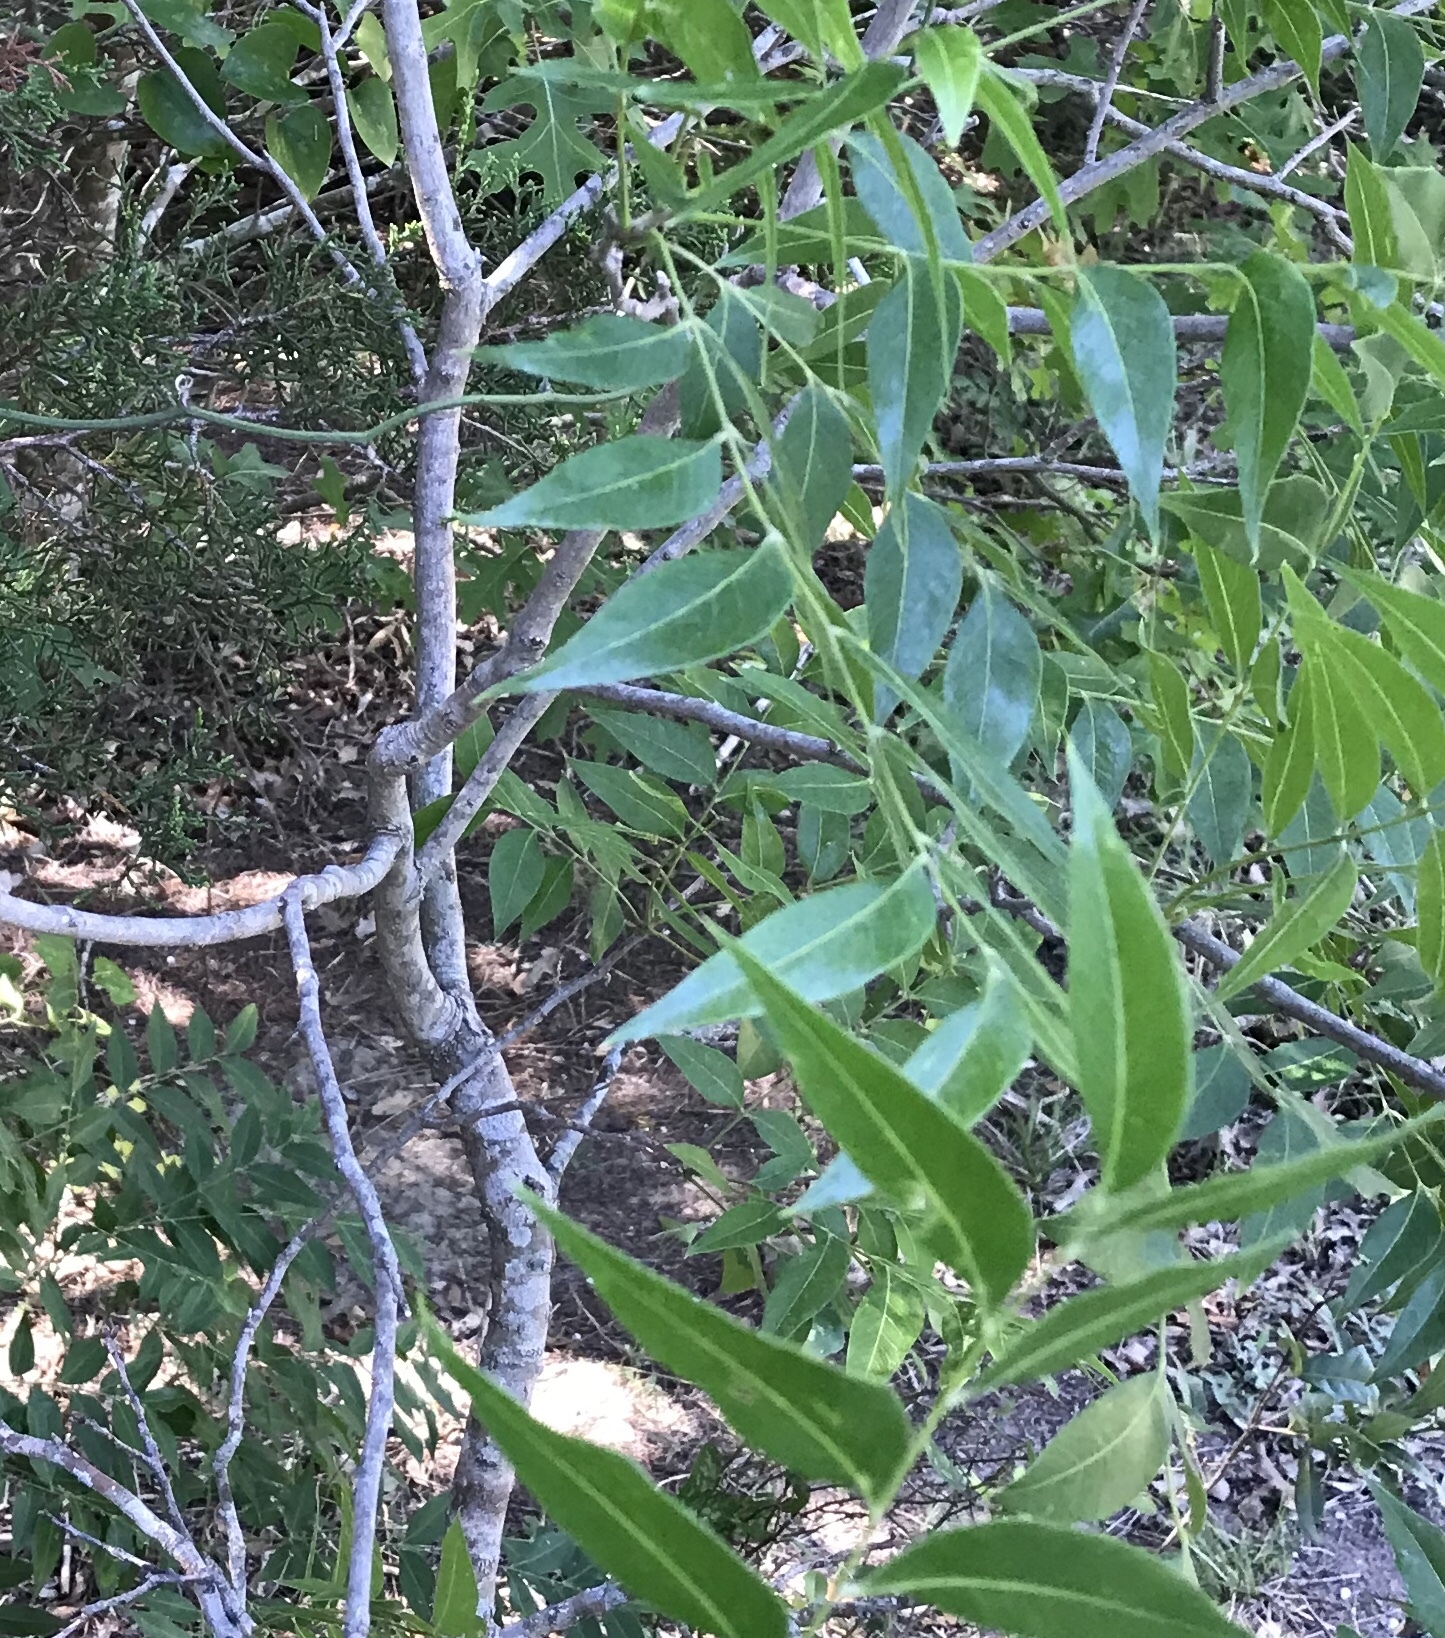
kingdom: Plantae
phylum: Tracheophyta
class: Magnoliopsida
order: Sapindales
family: Sapindaceae
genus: Sapindus
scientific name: Sapindus drummondii
